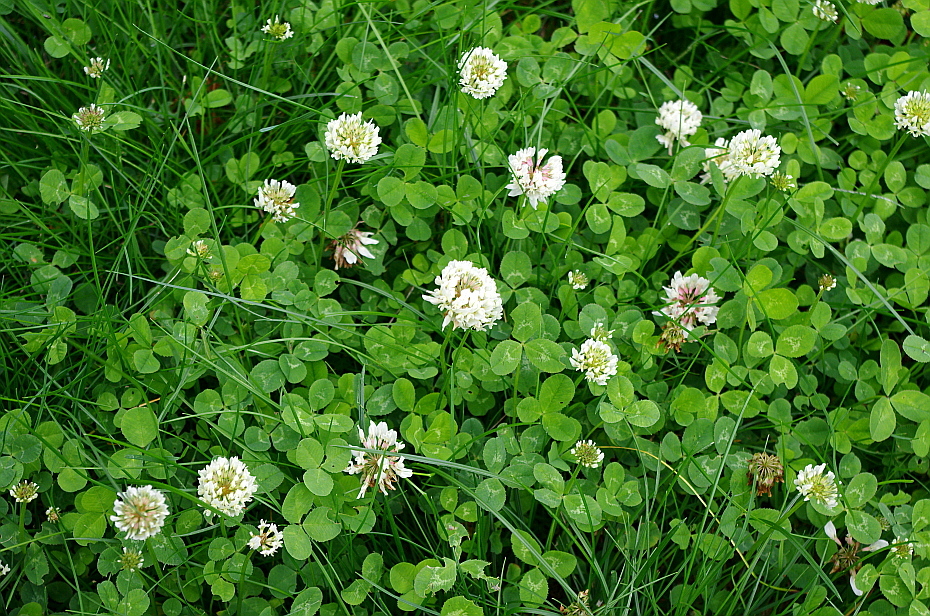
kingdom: Plantae
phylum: Tracheophyta
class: Magnoliopsida
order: Fabales
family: Fabaceae
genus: Trifolium
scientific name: Trifolium repens
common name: White clover
